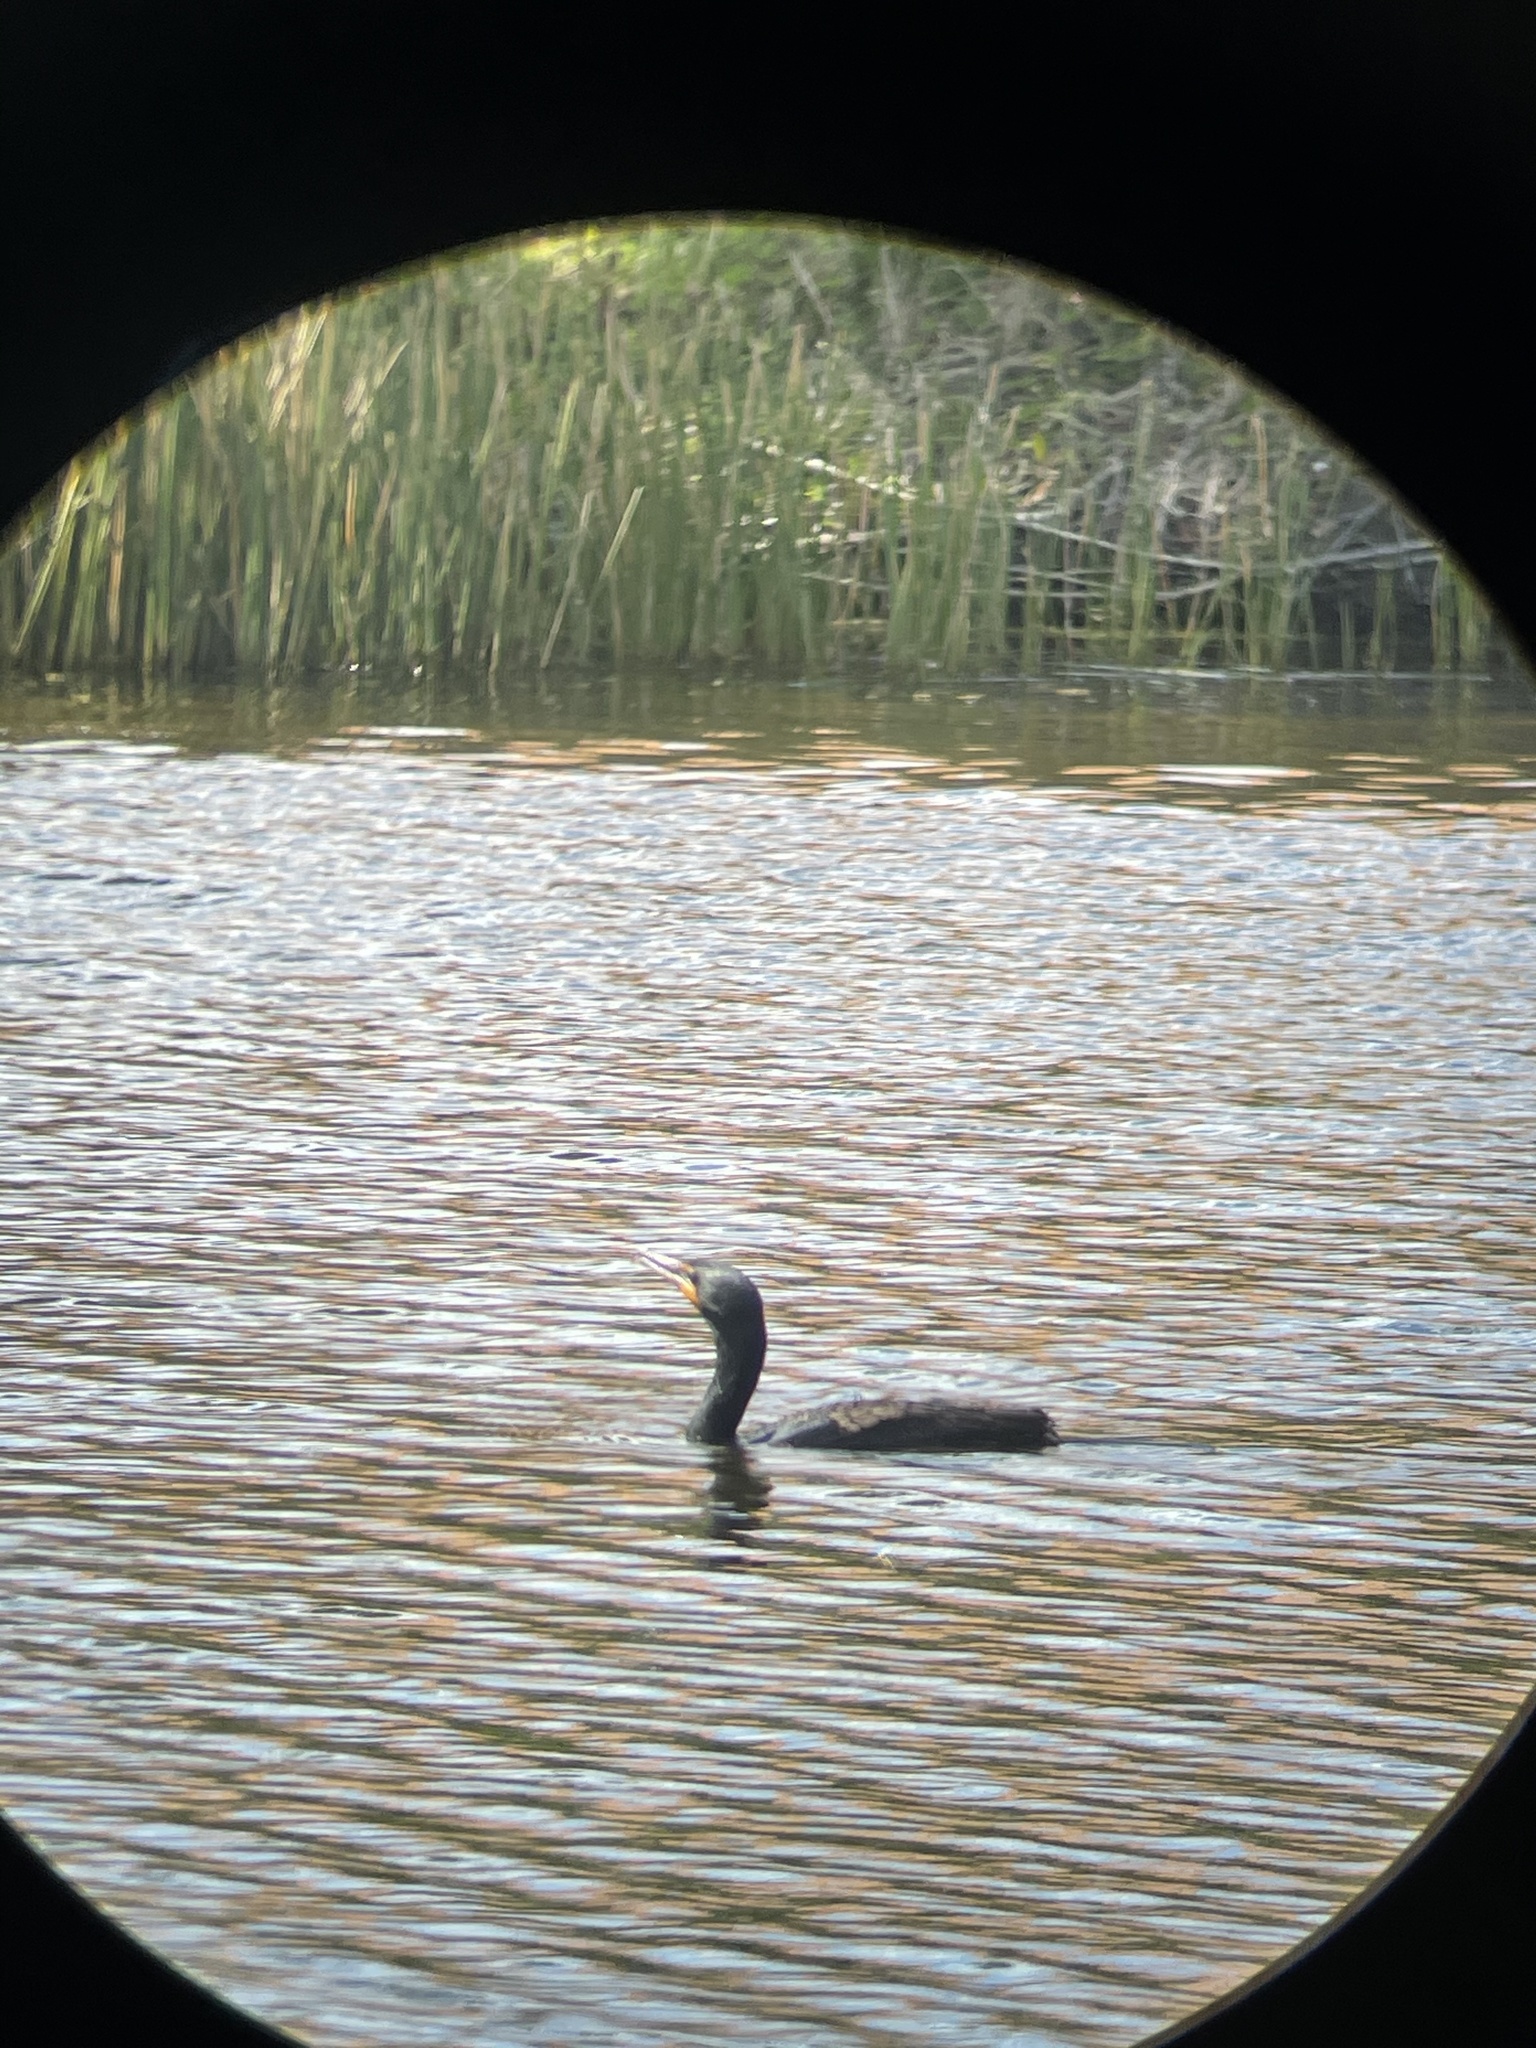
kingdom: Animalia
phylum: Chordata
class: Aves
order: Suliformes
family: Phalacrocoracidae
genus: Phalacrocorax
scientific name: Phalacrocorax auritus
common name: Double-crested cormorant
